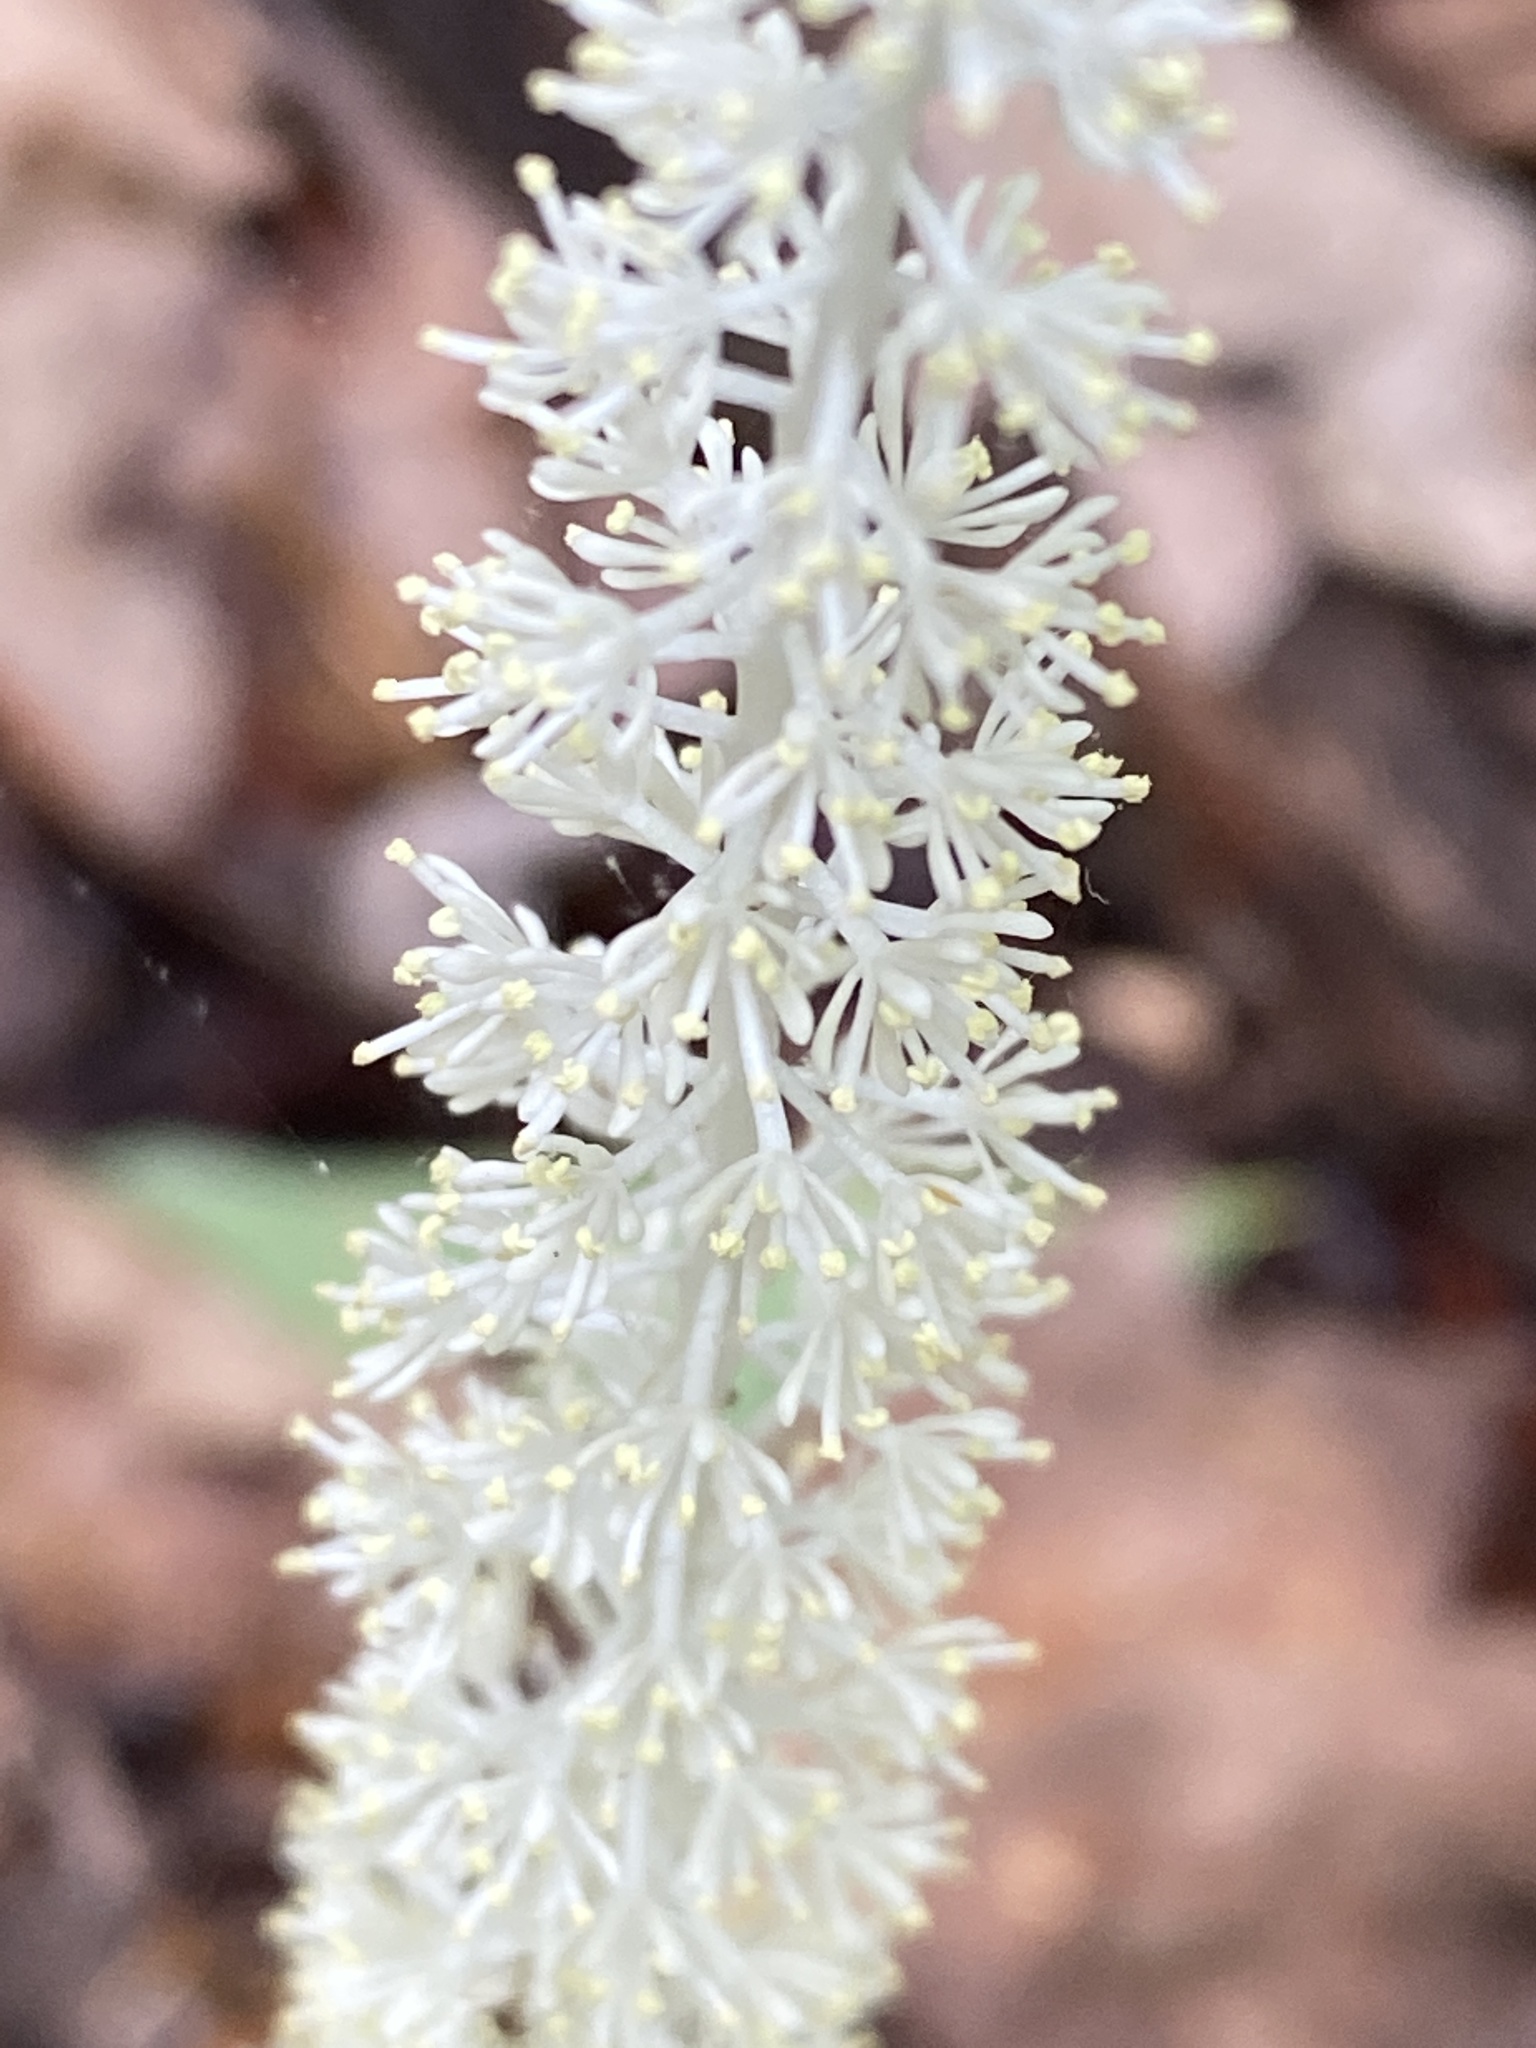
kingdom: Plantae
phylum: Tracheophyta
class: Liliopsida
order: Liliales
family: Melanthiaceae
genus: Chamaelirium
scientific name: Chamaelirium luteum
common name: Fairy-wand
